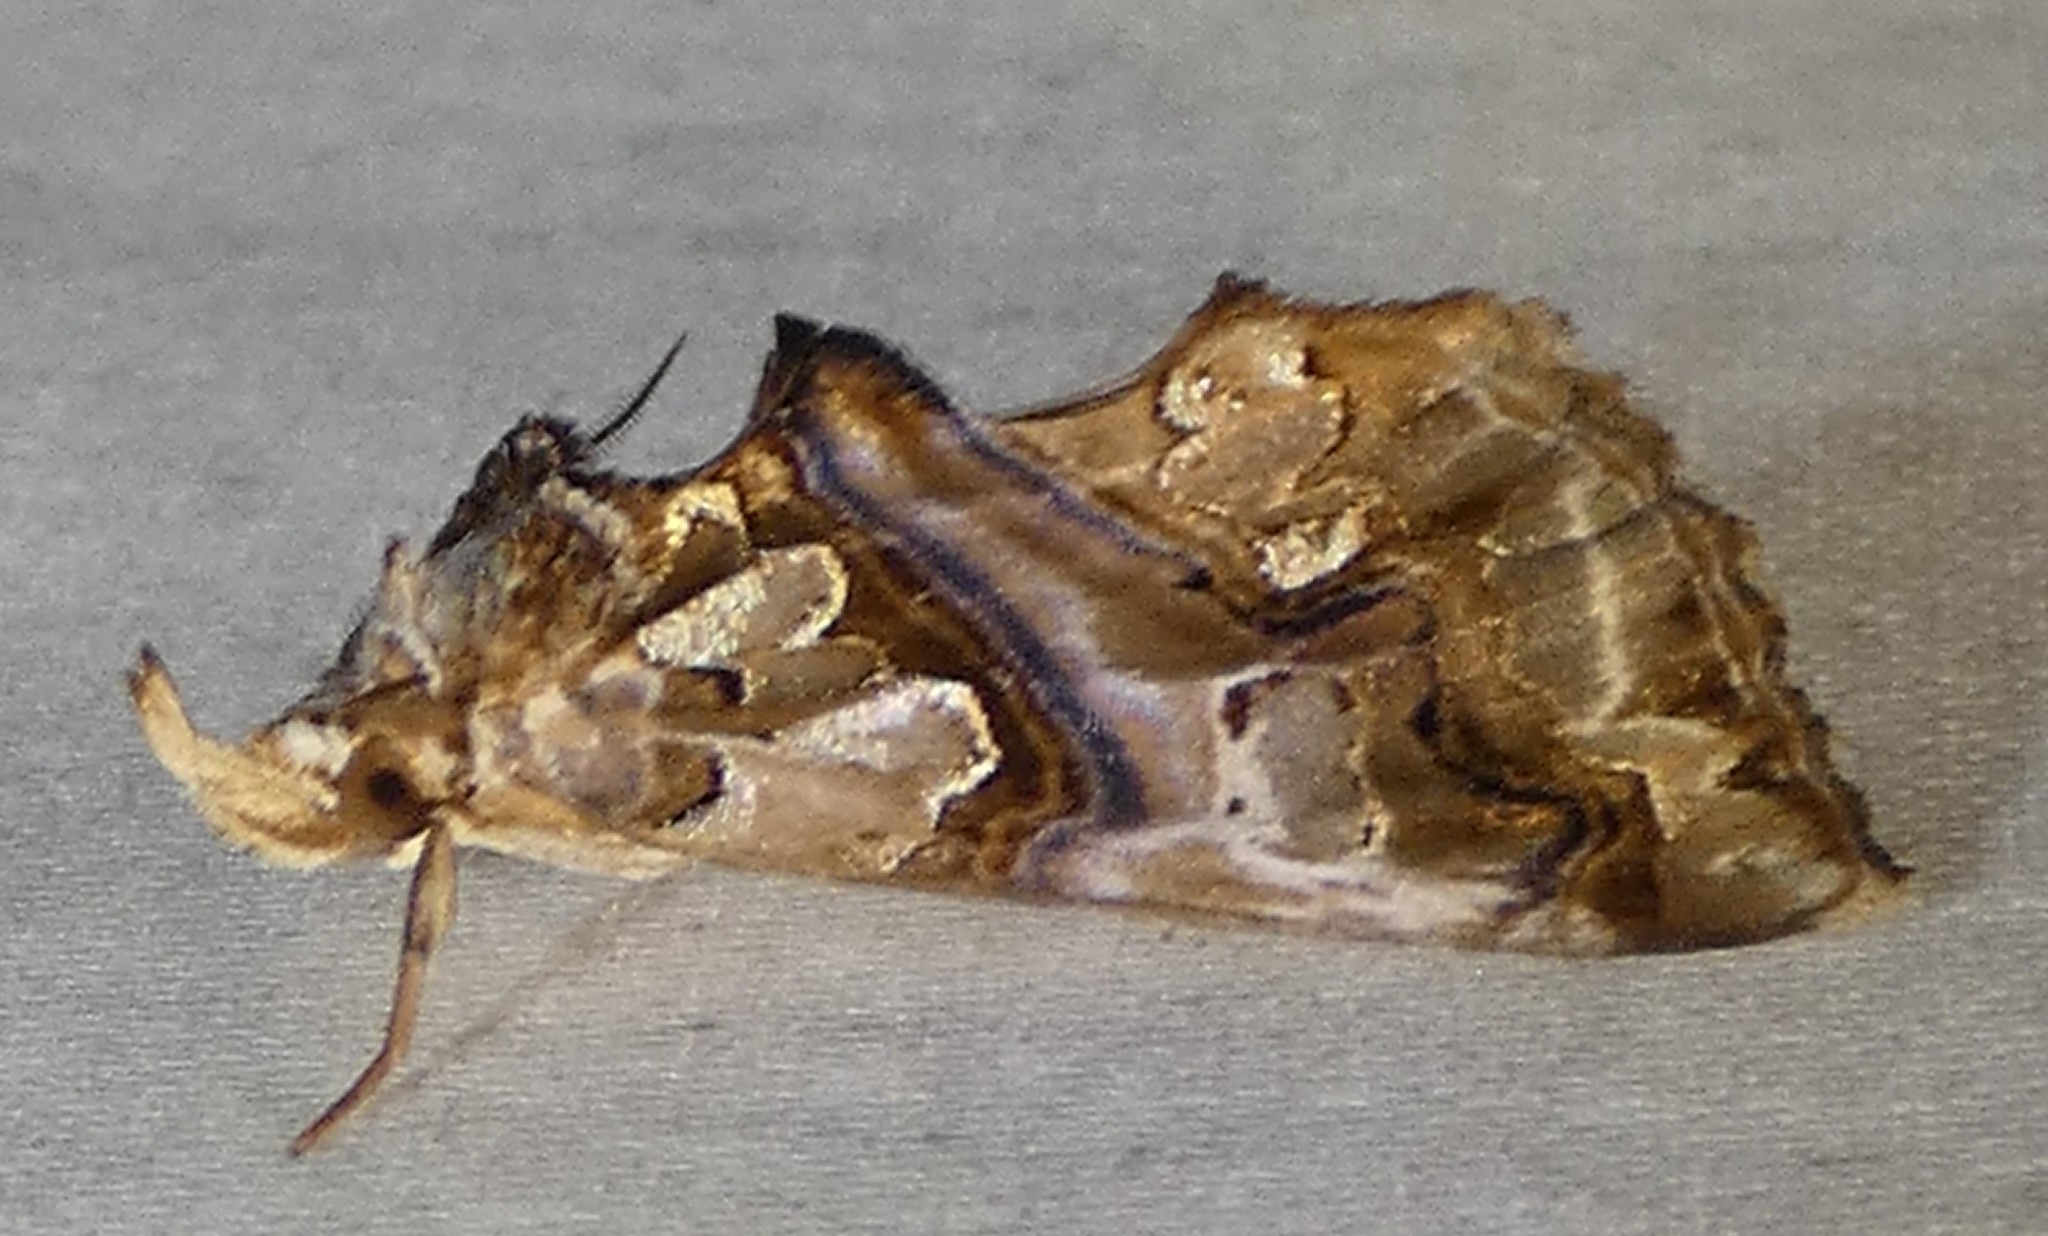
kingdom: Animalia
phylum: Arthropoda
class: Insecta
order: Lepidoptera
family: Erebidae
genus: Plusiodonta
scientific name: Plusiodonta compressipalpis
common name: Moonseed moth
